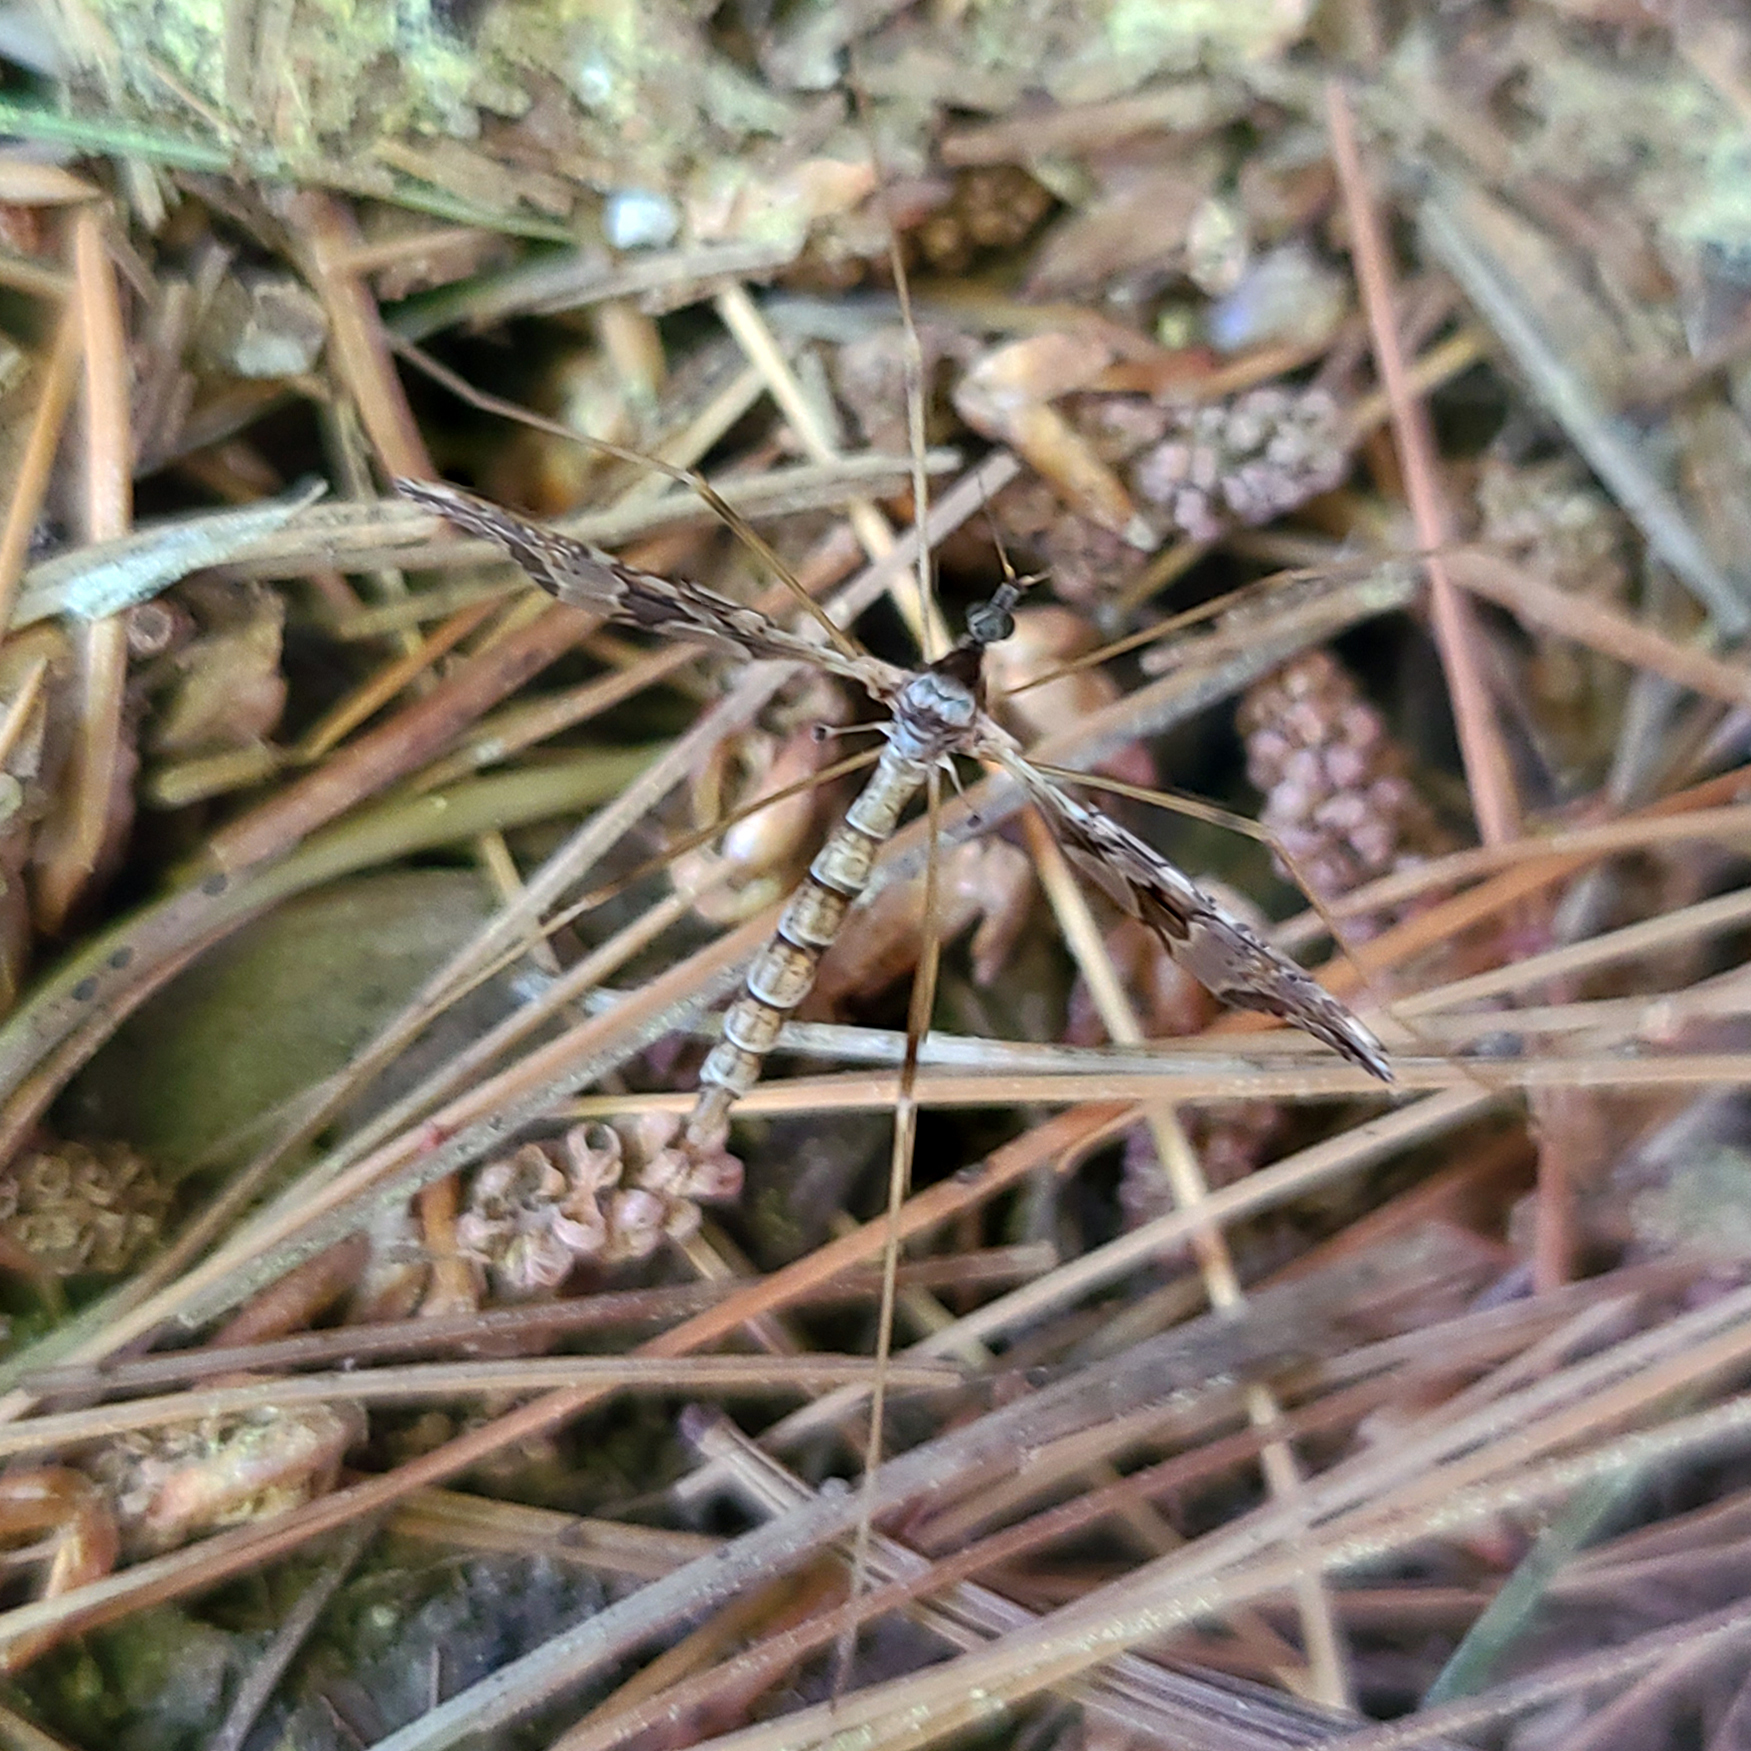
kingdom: Animalia
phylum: Arthropoda
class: Insecta
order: Diptera
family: Limoniidae
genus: Epiphragma
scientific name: Epiphragma solatrix
